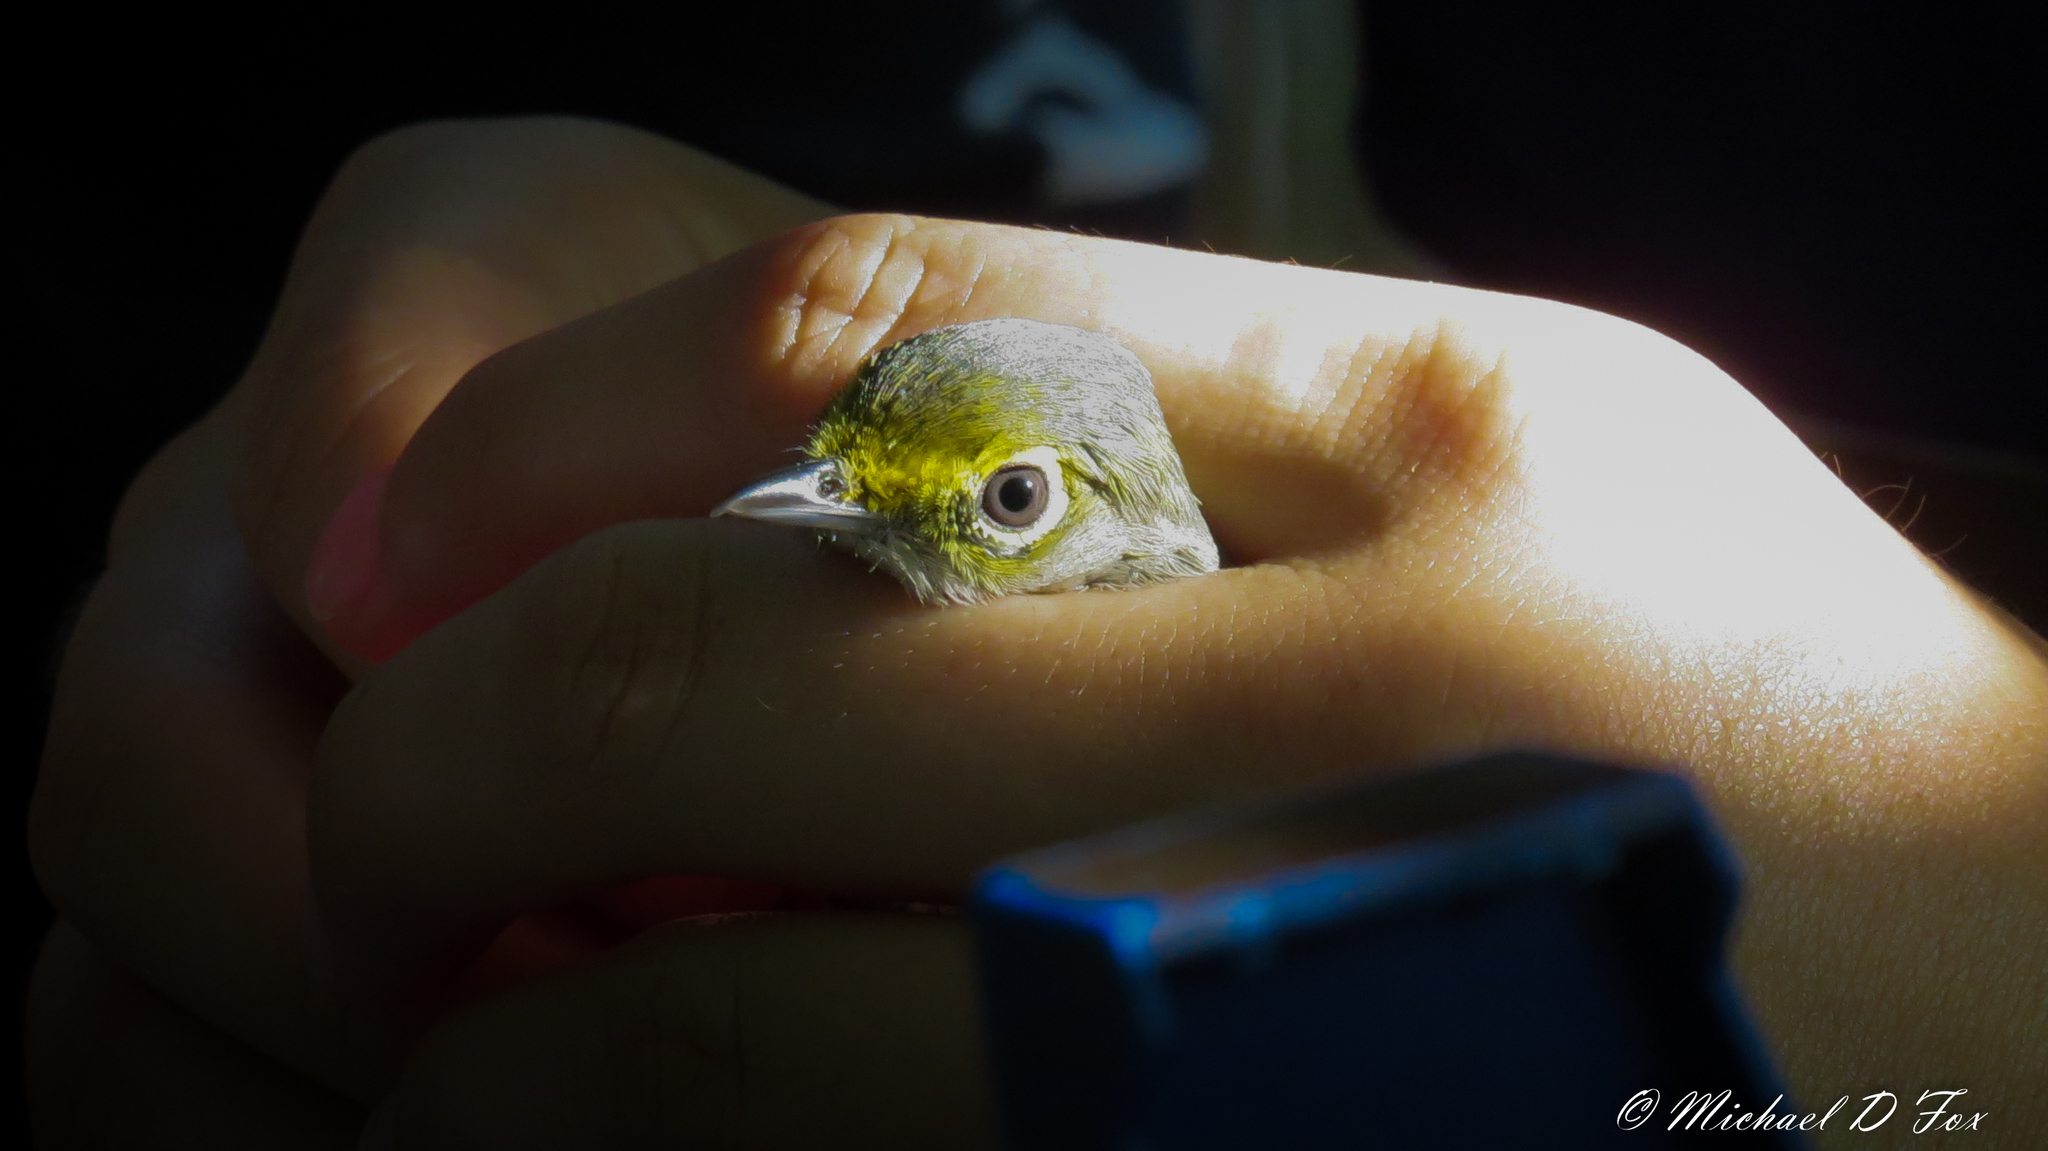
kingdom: Animalia
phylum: Chordata
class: Aves
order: Passeriformes
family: Vireonidae
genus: Vireo
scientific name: Vireo griseus
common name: White-eyed vireo
